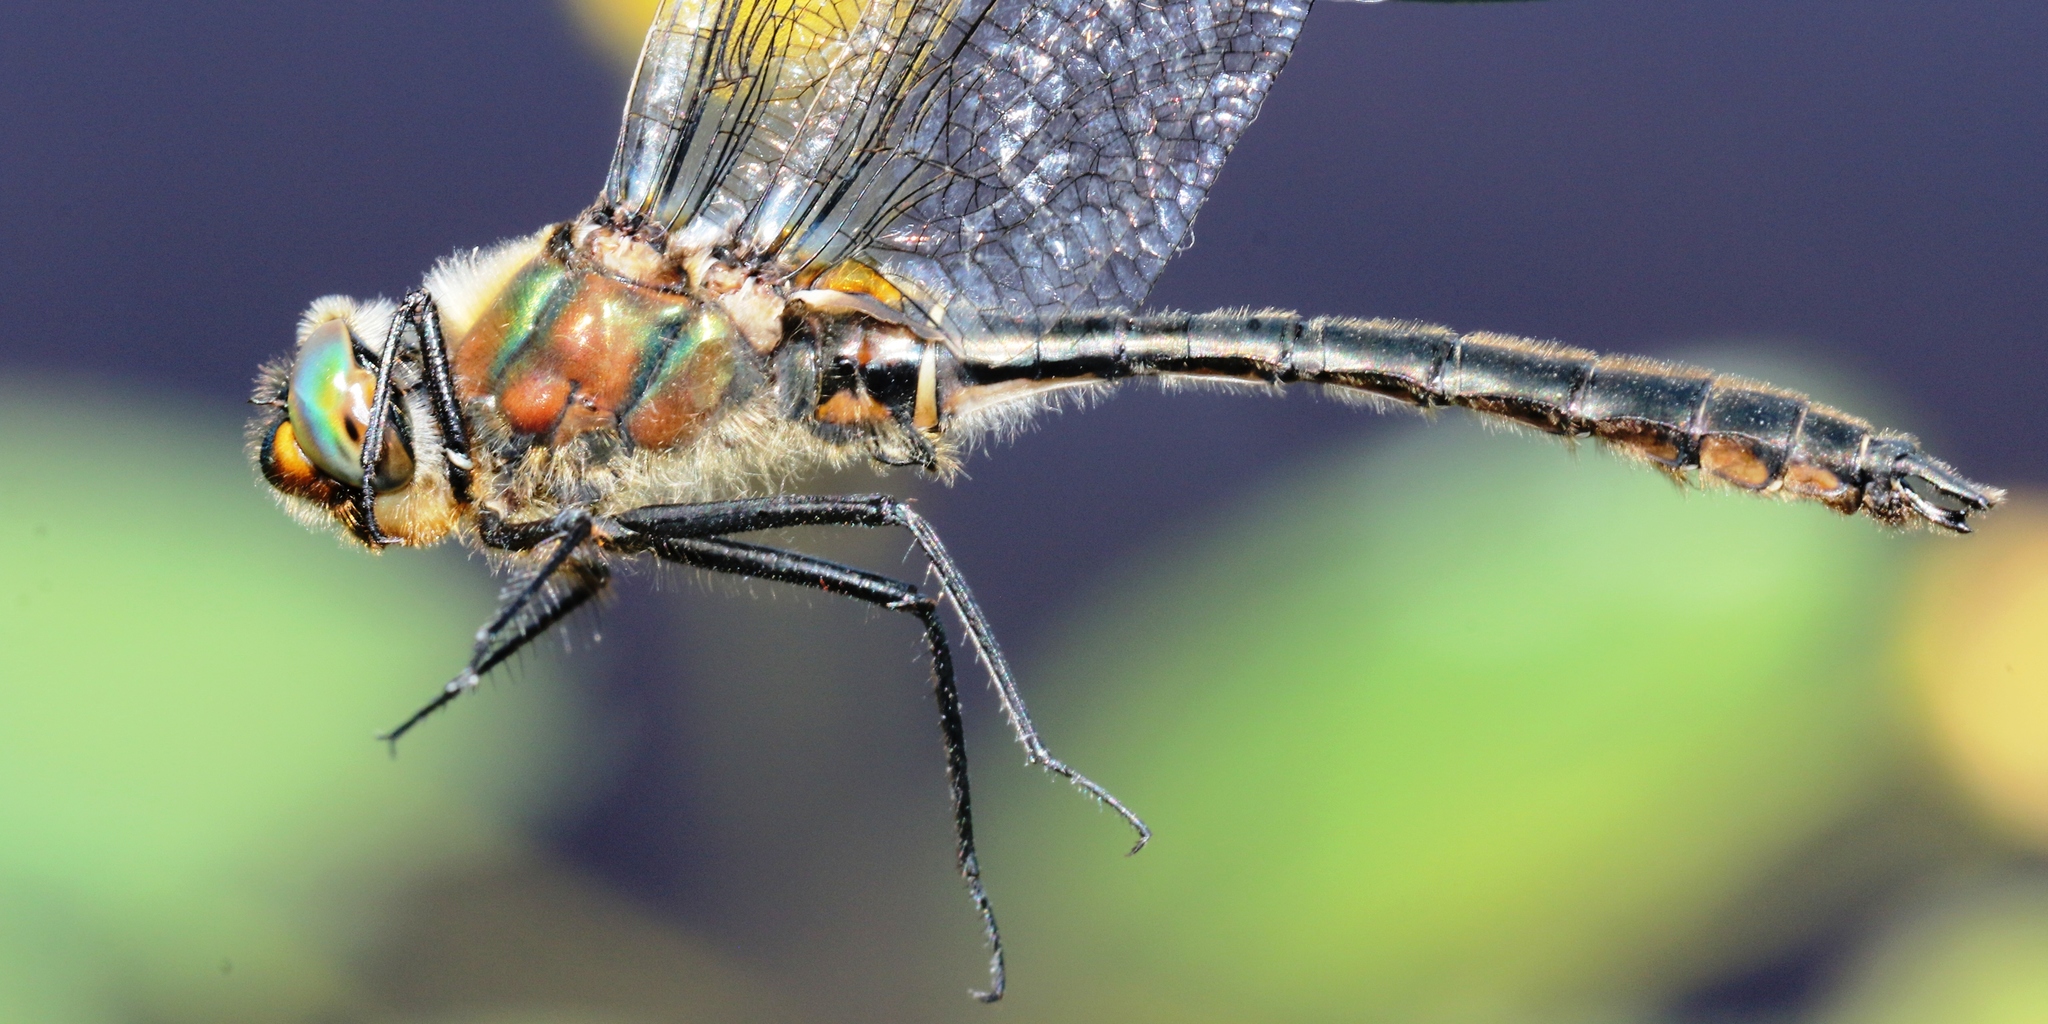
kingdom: Animalia
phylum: Arthropoda
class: Insecta
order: Odonata
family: Corduliidae
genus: Cordulia
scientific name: Cordulia shurtleffii
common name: American emerald
